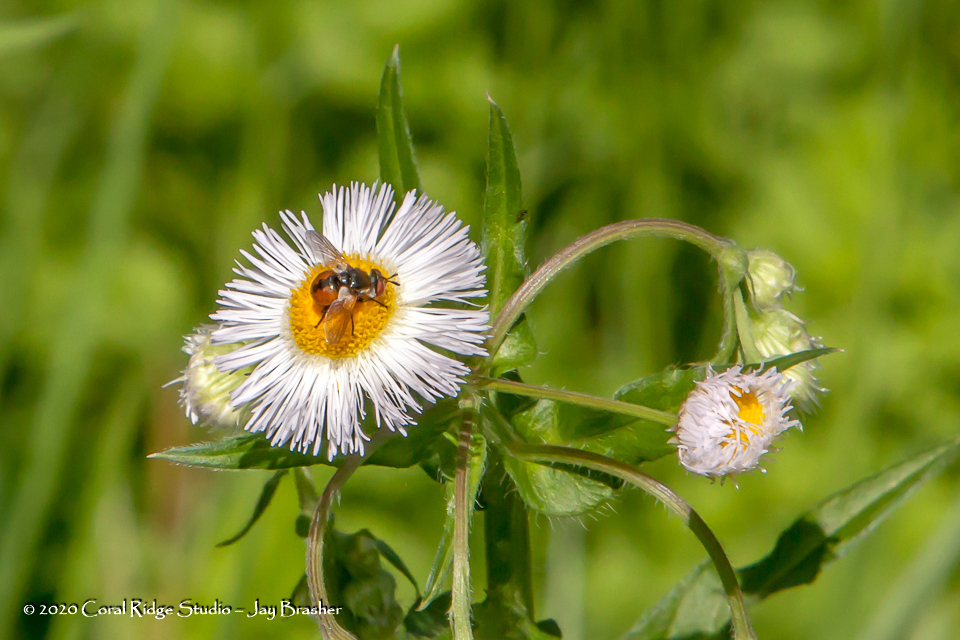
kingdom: Plantae
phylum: Tracheophyta
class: Magnoliopsida
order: Asterales
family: Asteraceae
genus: Erigeron
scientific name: Erigeron philadelphicus
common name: Robin's-plantain
